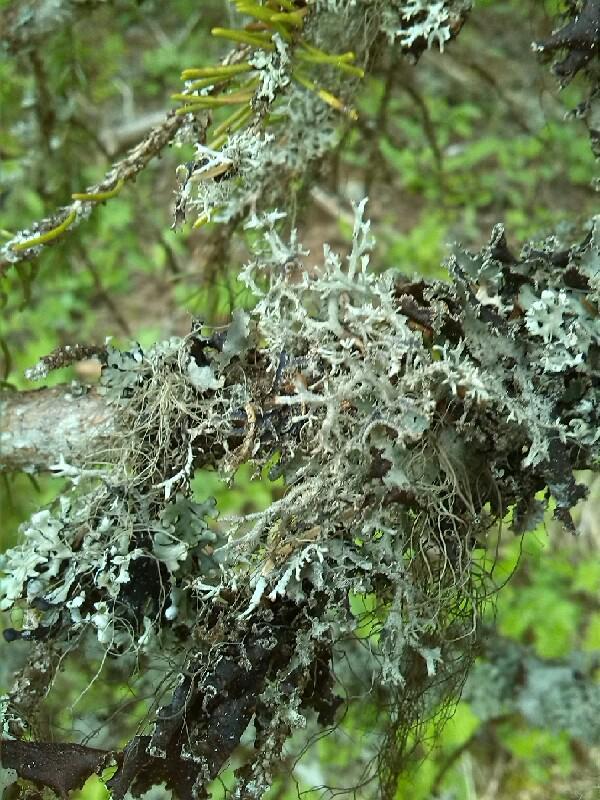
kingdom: Fungi
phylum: Ascomycota
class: Lecanoromycetes
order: Lecanorales
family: Parmeliaceae
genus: Pseudevernia
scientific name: Pseudevernia furfuracea
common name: Tree moss
